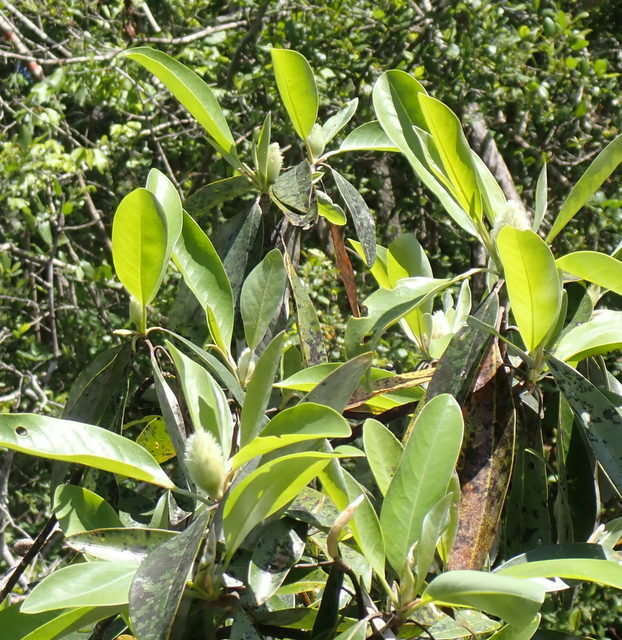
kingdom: Plantae
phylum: Tracheophyta
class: Magnoliopsida
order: Magnoliales
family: Magnoliaceae
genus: Magnolia
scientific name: Magnolia virginiana
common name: Swamp bay
